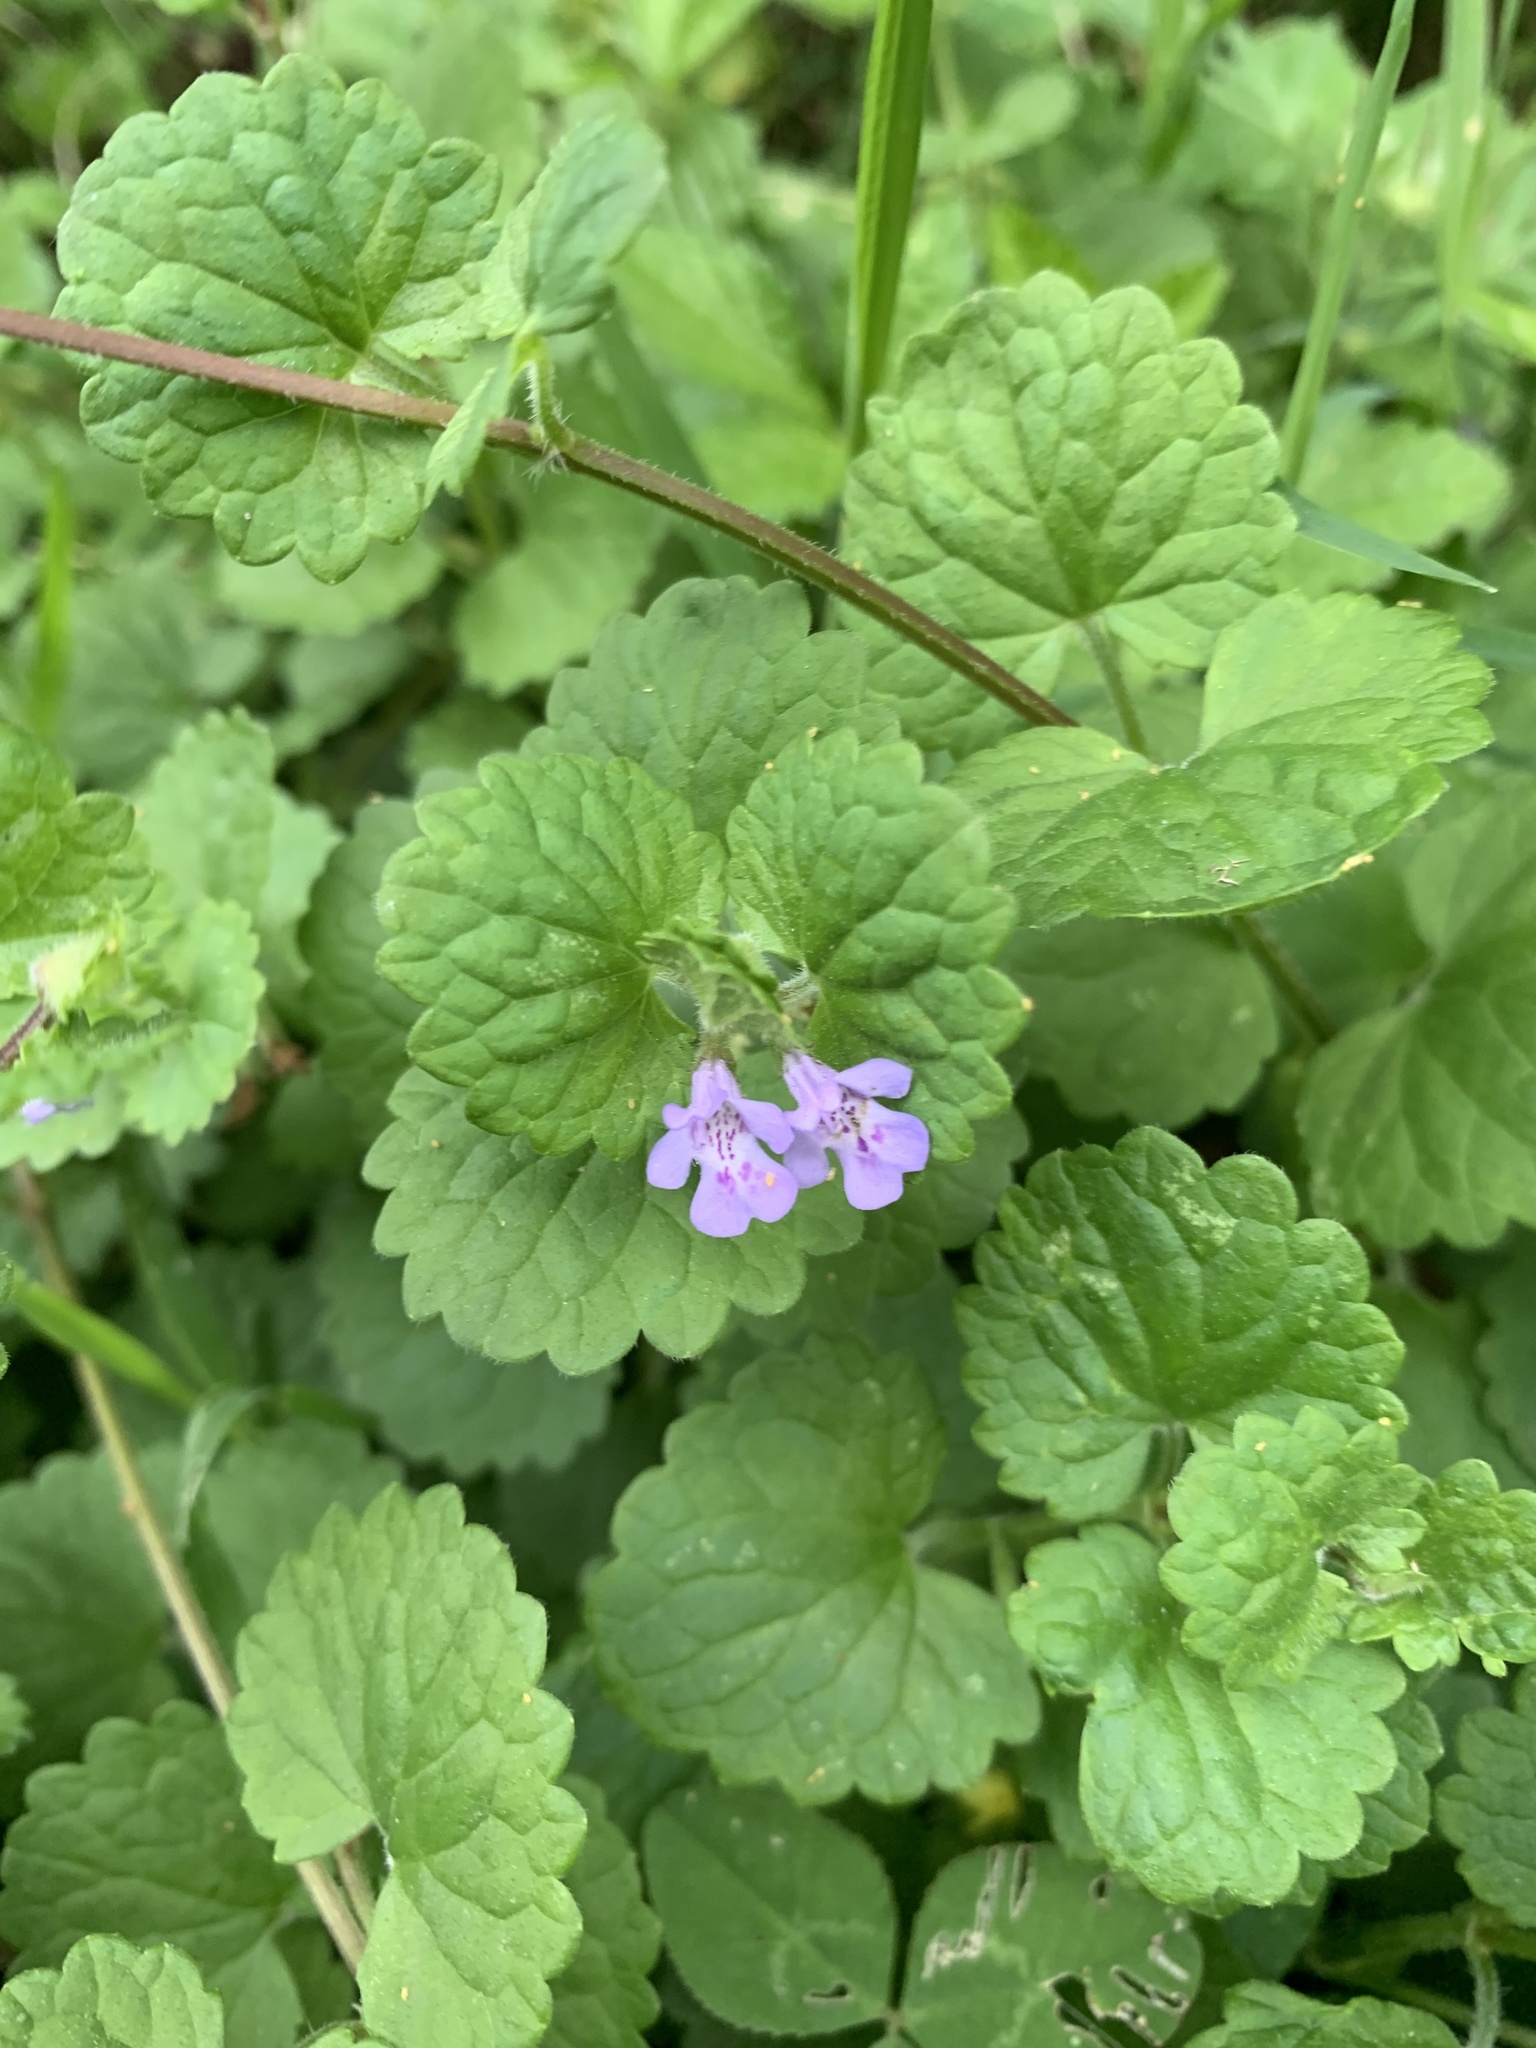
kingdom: Plantae
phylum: Tracheophyta
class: Magnoliopsida
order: Lamiales
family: Lamiaceae
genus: Glechoma
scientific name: Glechoma hederacea
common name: Ground ivy
